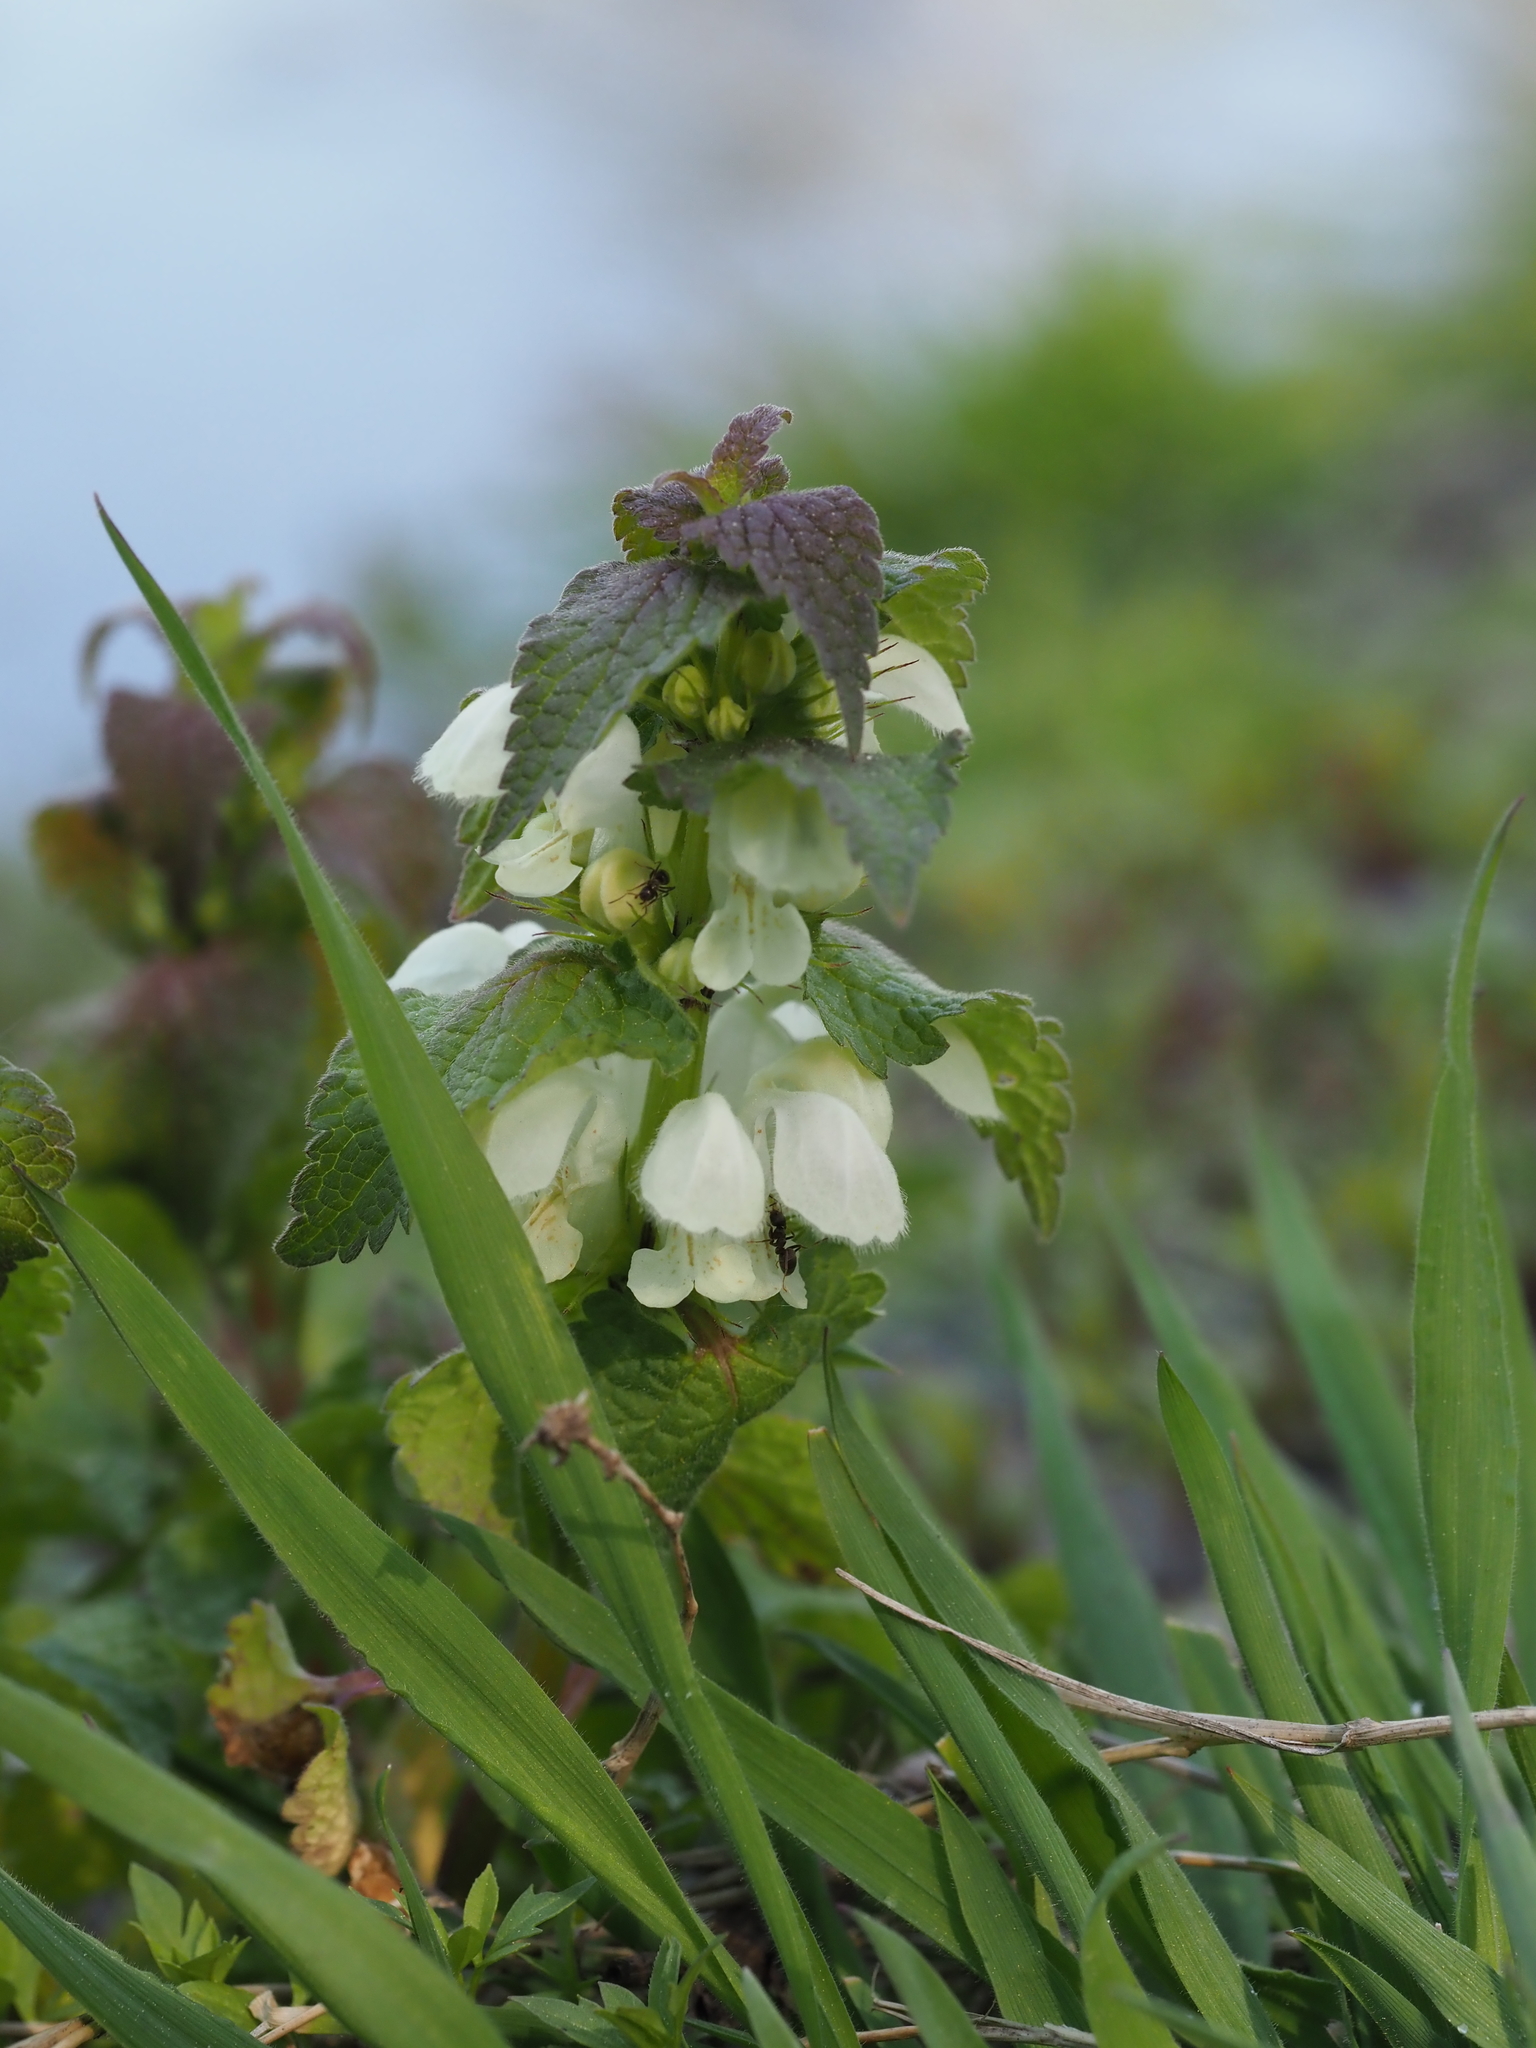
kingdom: Plantae
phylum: Tracheophyta
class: Magnoliopsida
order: Lamiales
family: Lamiaceae
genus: Lamium
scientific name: Lamium album
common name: White dead-nettle
